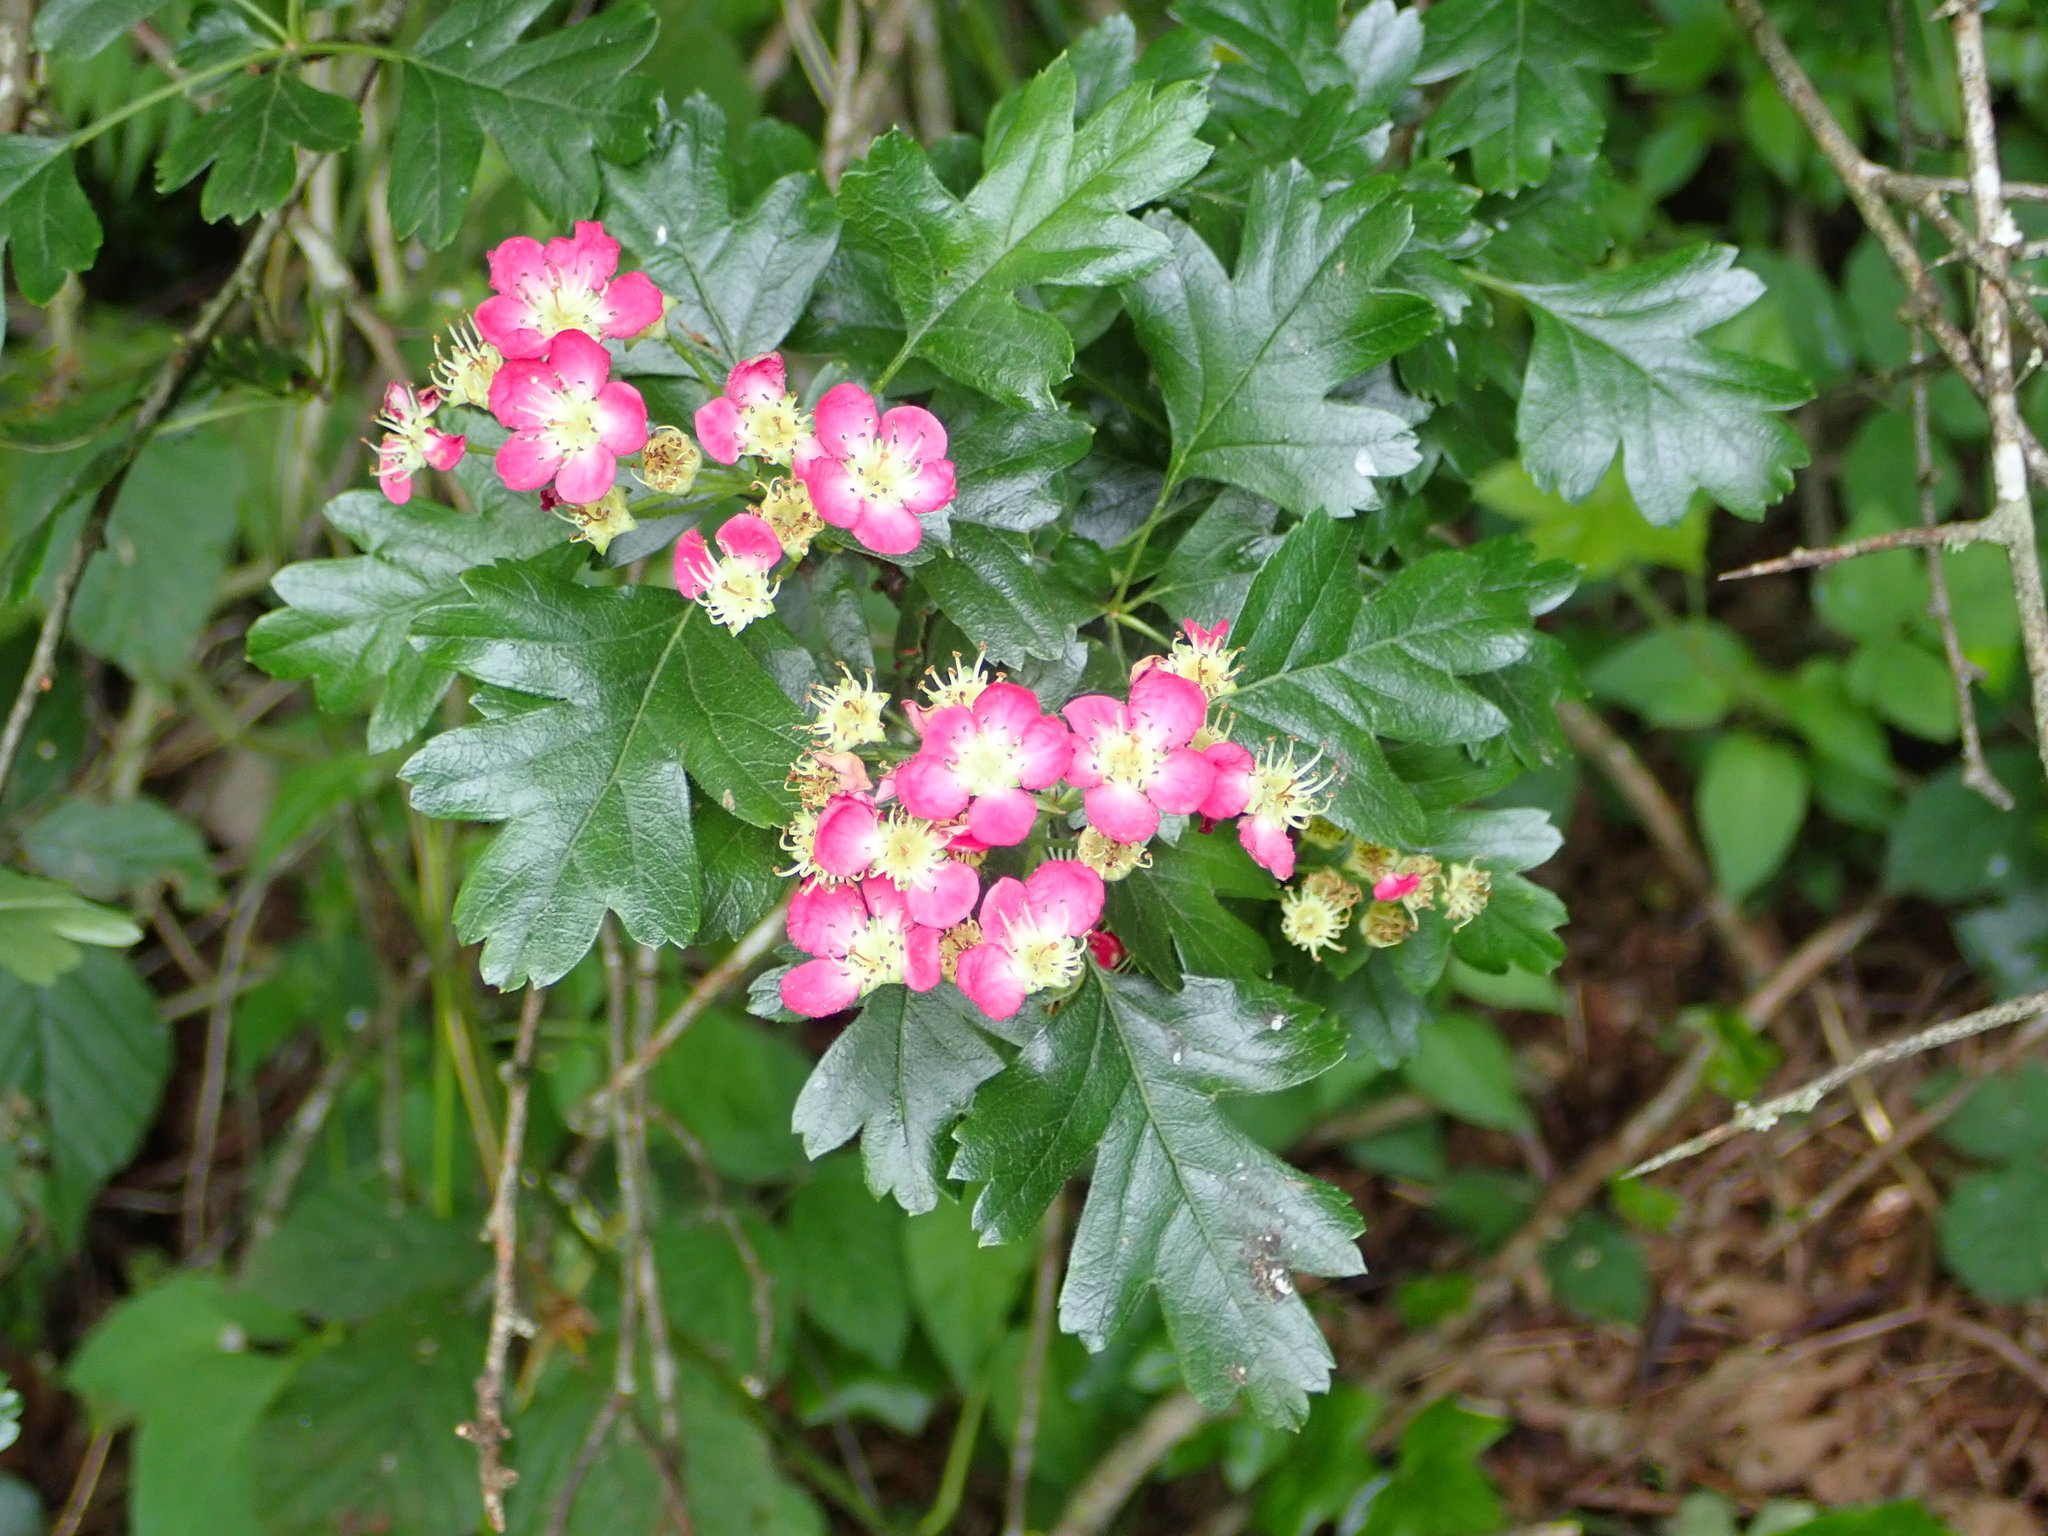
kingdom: Plantae
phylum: Tracheophyta
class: Magnoliopsida
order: Rosales
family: Rosaceae
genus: Crataegus
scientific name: Crataegus monogyna
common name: Hawthorn
